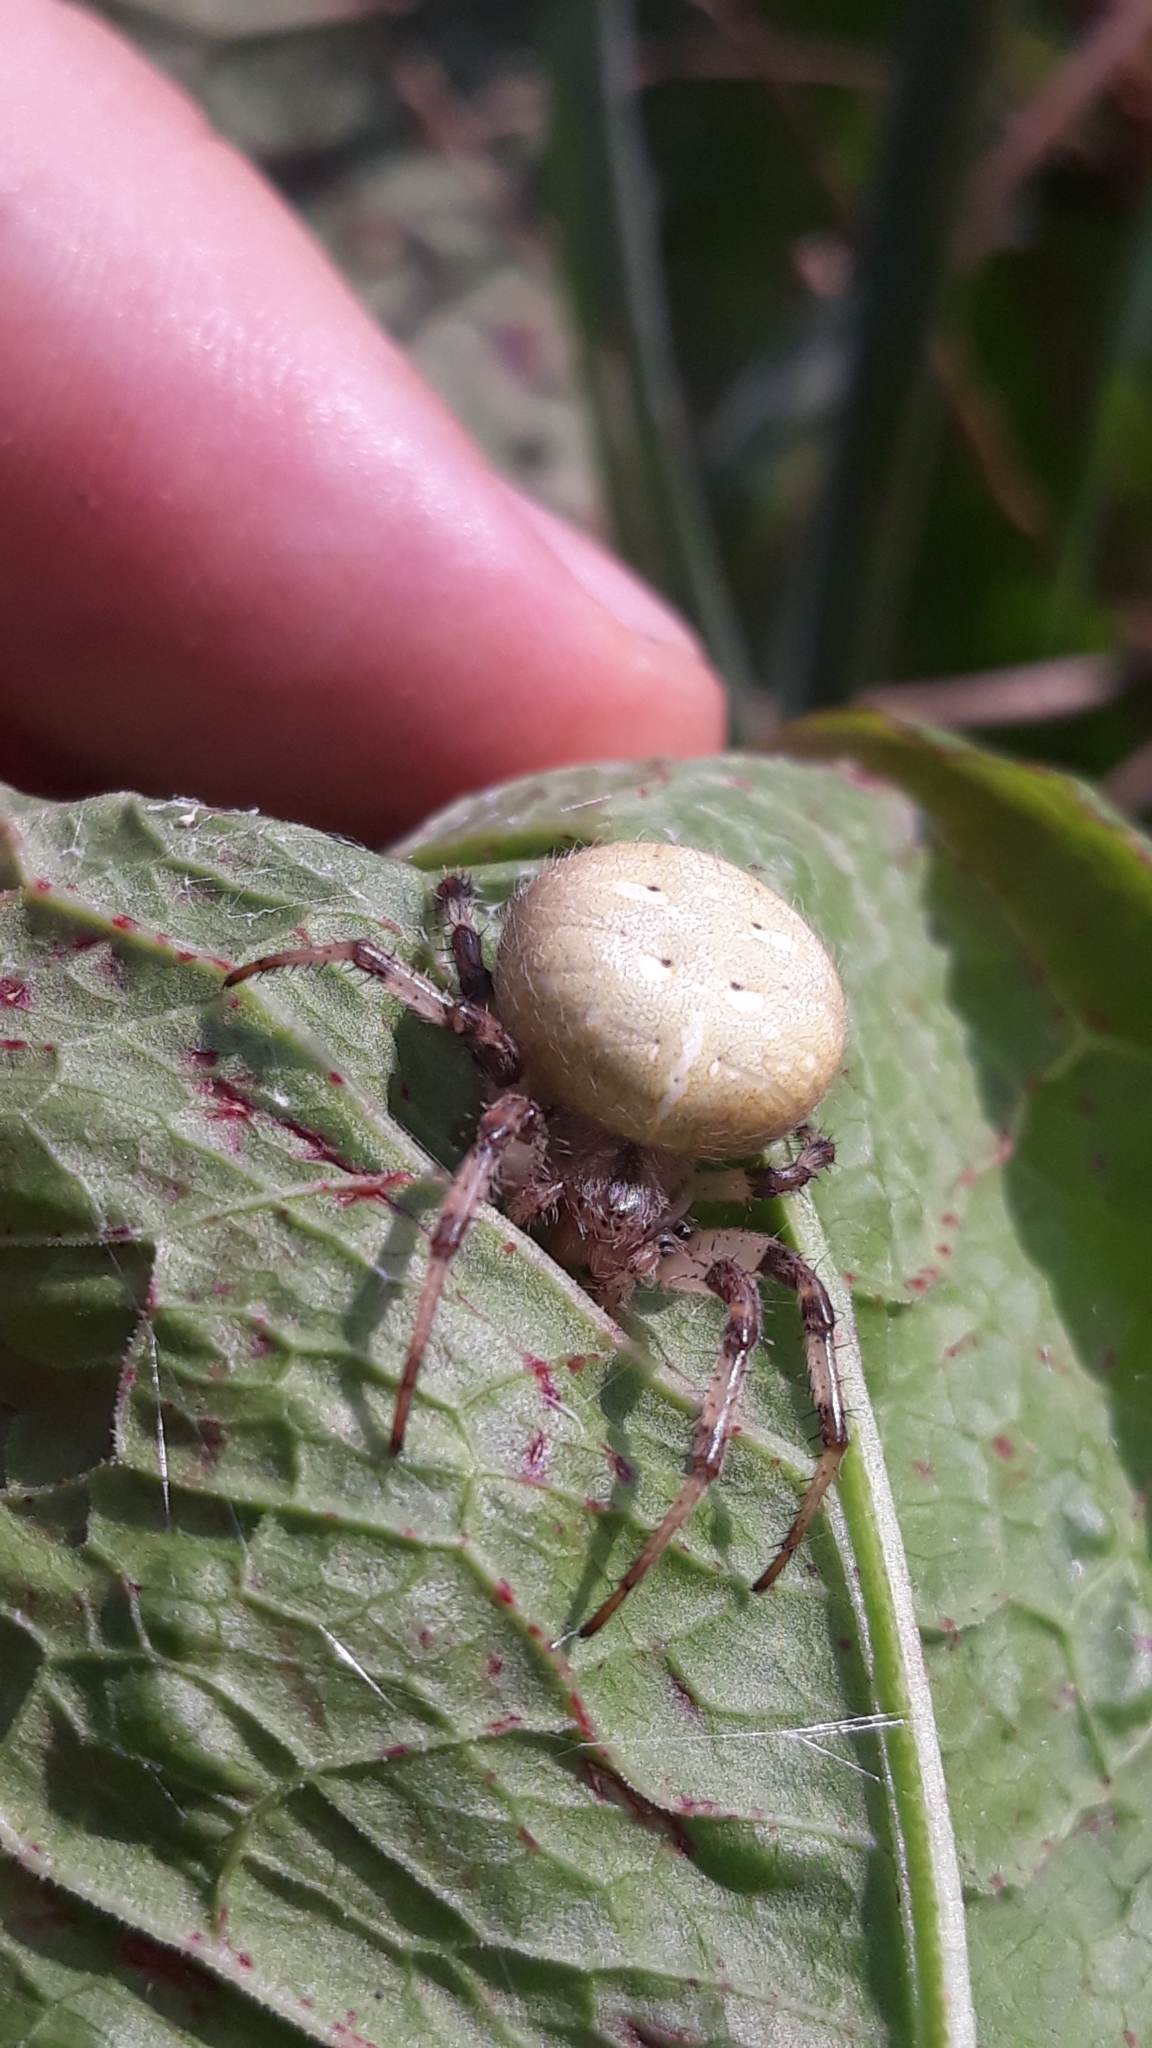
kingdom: Animalia
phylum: Arthropoda
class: Arachnida
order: Araneae
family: Araneidae
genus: Araneus
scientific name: Araneus quadratus
